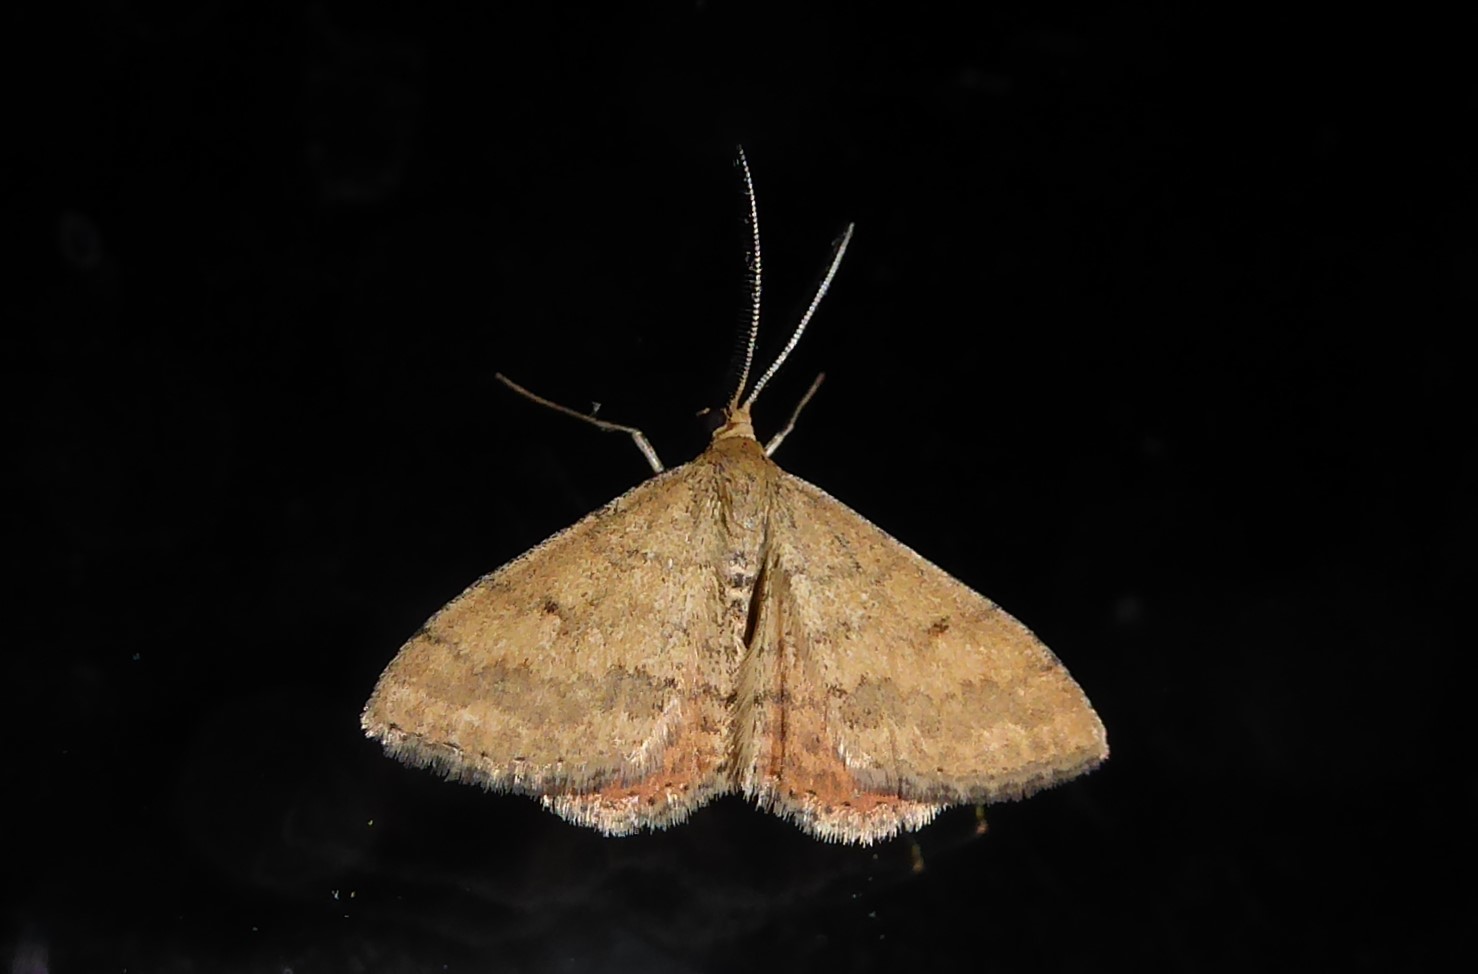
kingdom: Animalia
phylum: Arthropoda
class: Insecta
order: Lepidoptera
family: Geometridae
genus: Scopula
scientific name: Scopula rubraria
